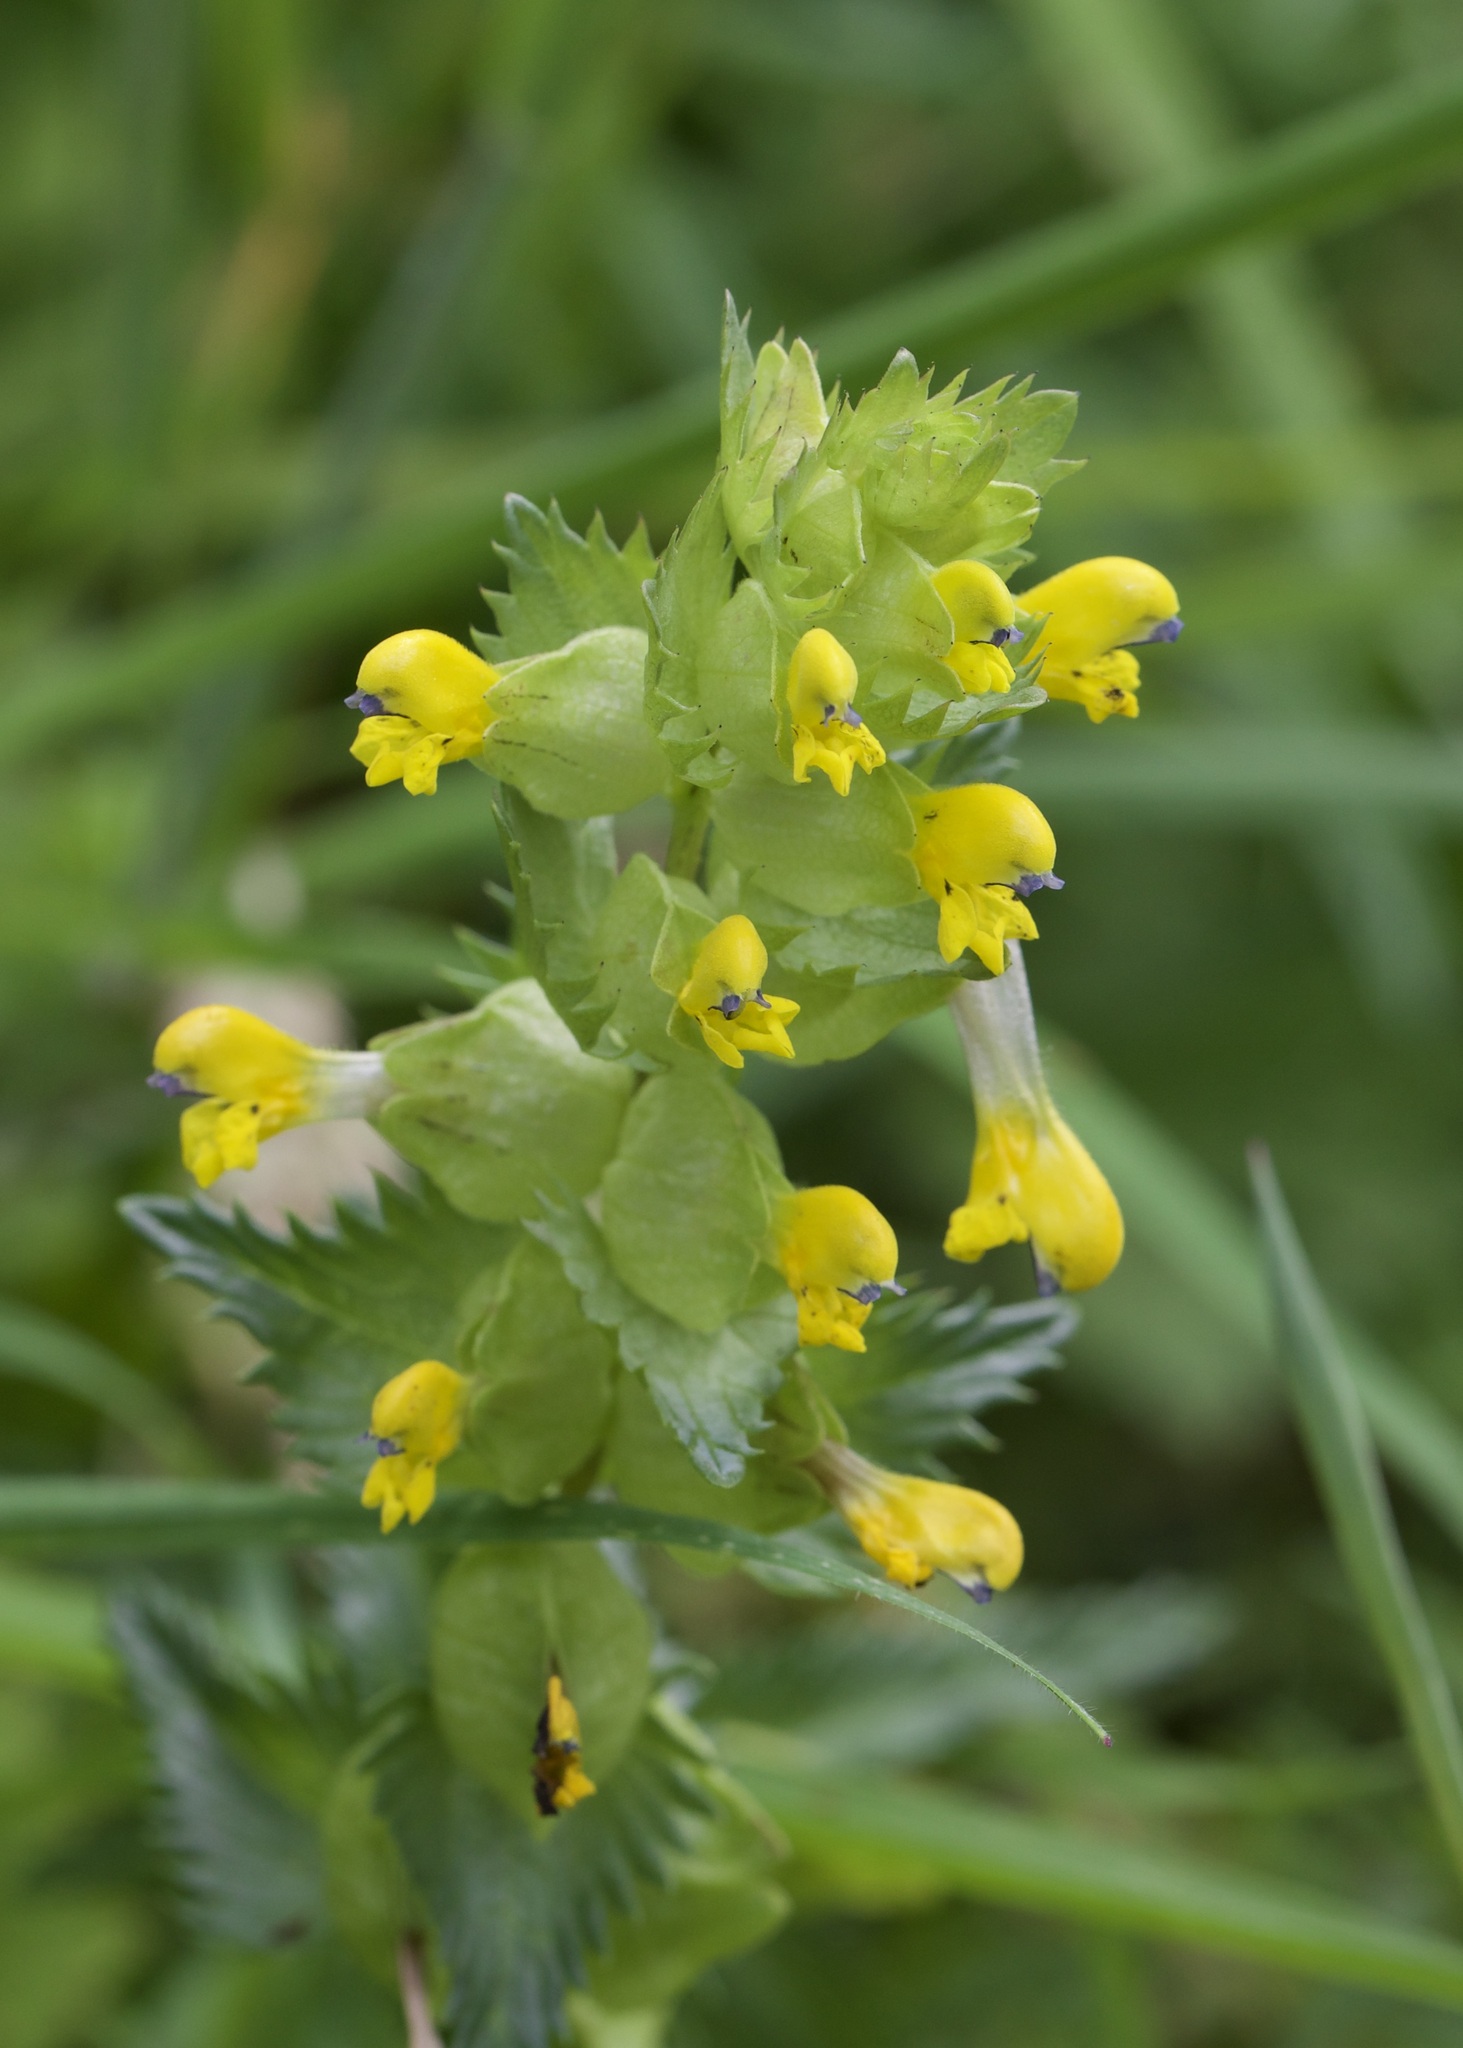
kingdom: Plantae
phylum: Tracheophyta
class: Magnoliopsida
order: Lamiales
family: Orobanchaceae
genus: Rhinanthus
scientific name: Rhinanthus minor
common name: Yellow-rattle
